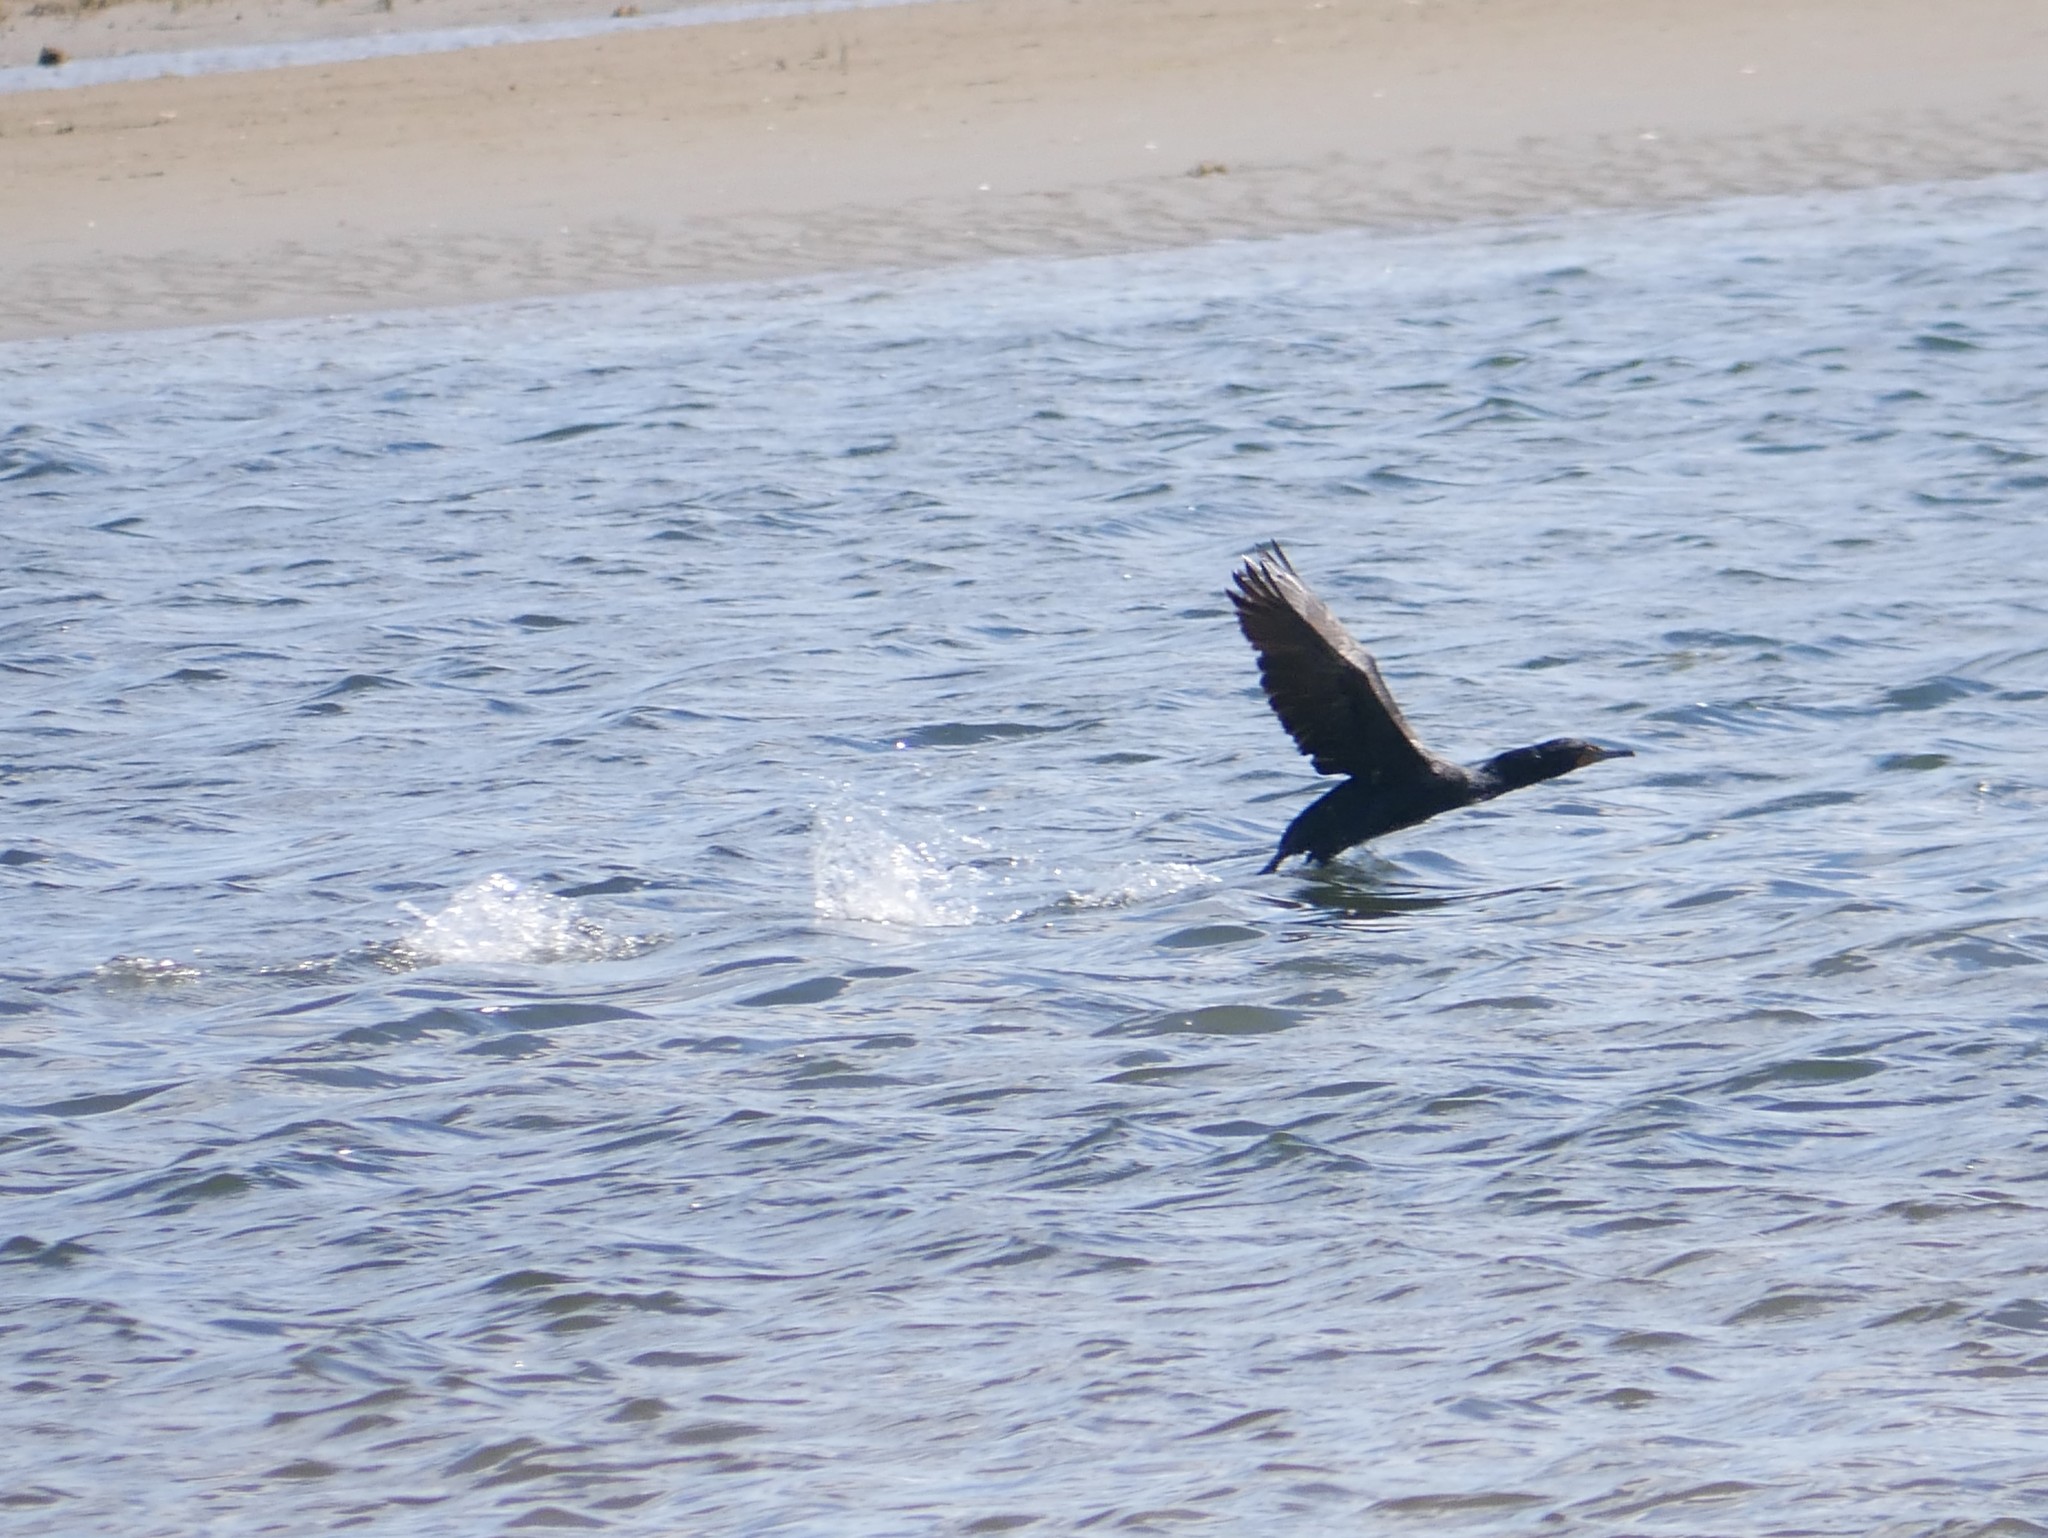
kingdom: Animalia
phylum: Chordata
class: Aves
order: Suliformes
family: Phalacrocoracidae
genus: Phalacrocorax
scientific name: Phalacrocorax auritus
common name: Double-crested cormorant
